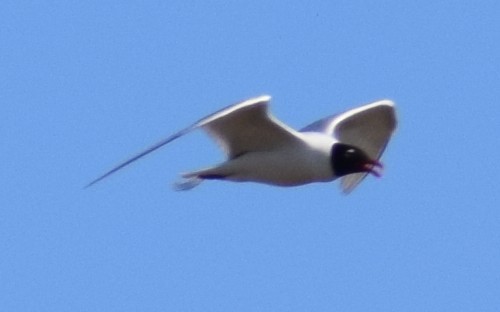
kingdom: Animalia
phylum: Chordata
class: Aves
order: Charadriiformes
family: Laridae
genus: Chroicocephalus
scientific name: Chroicocephalus ridibundus
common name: Black-headed gull
